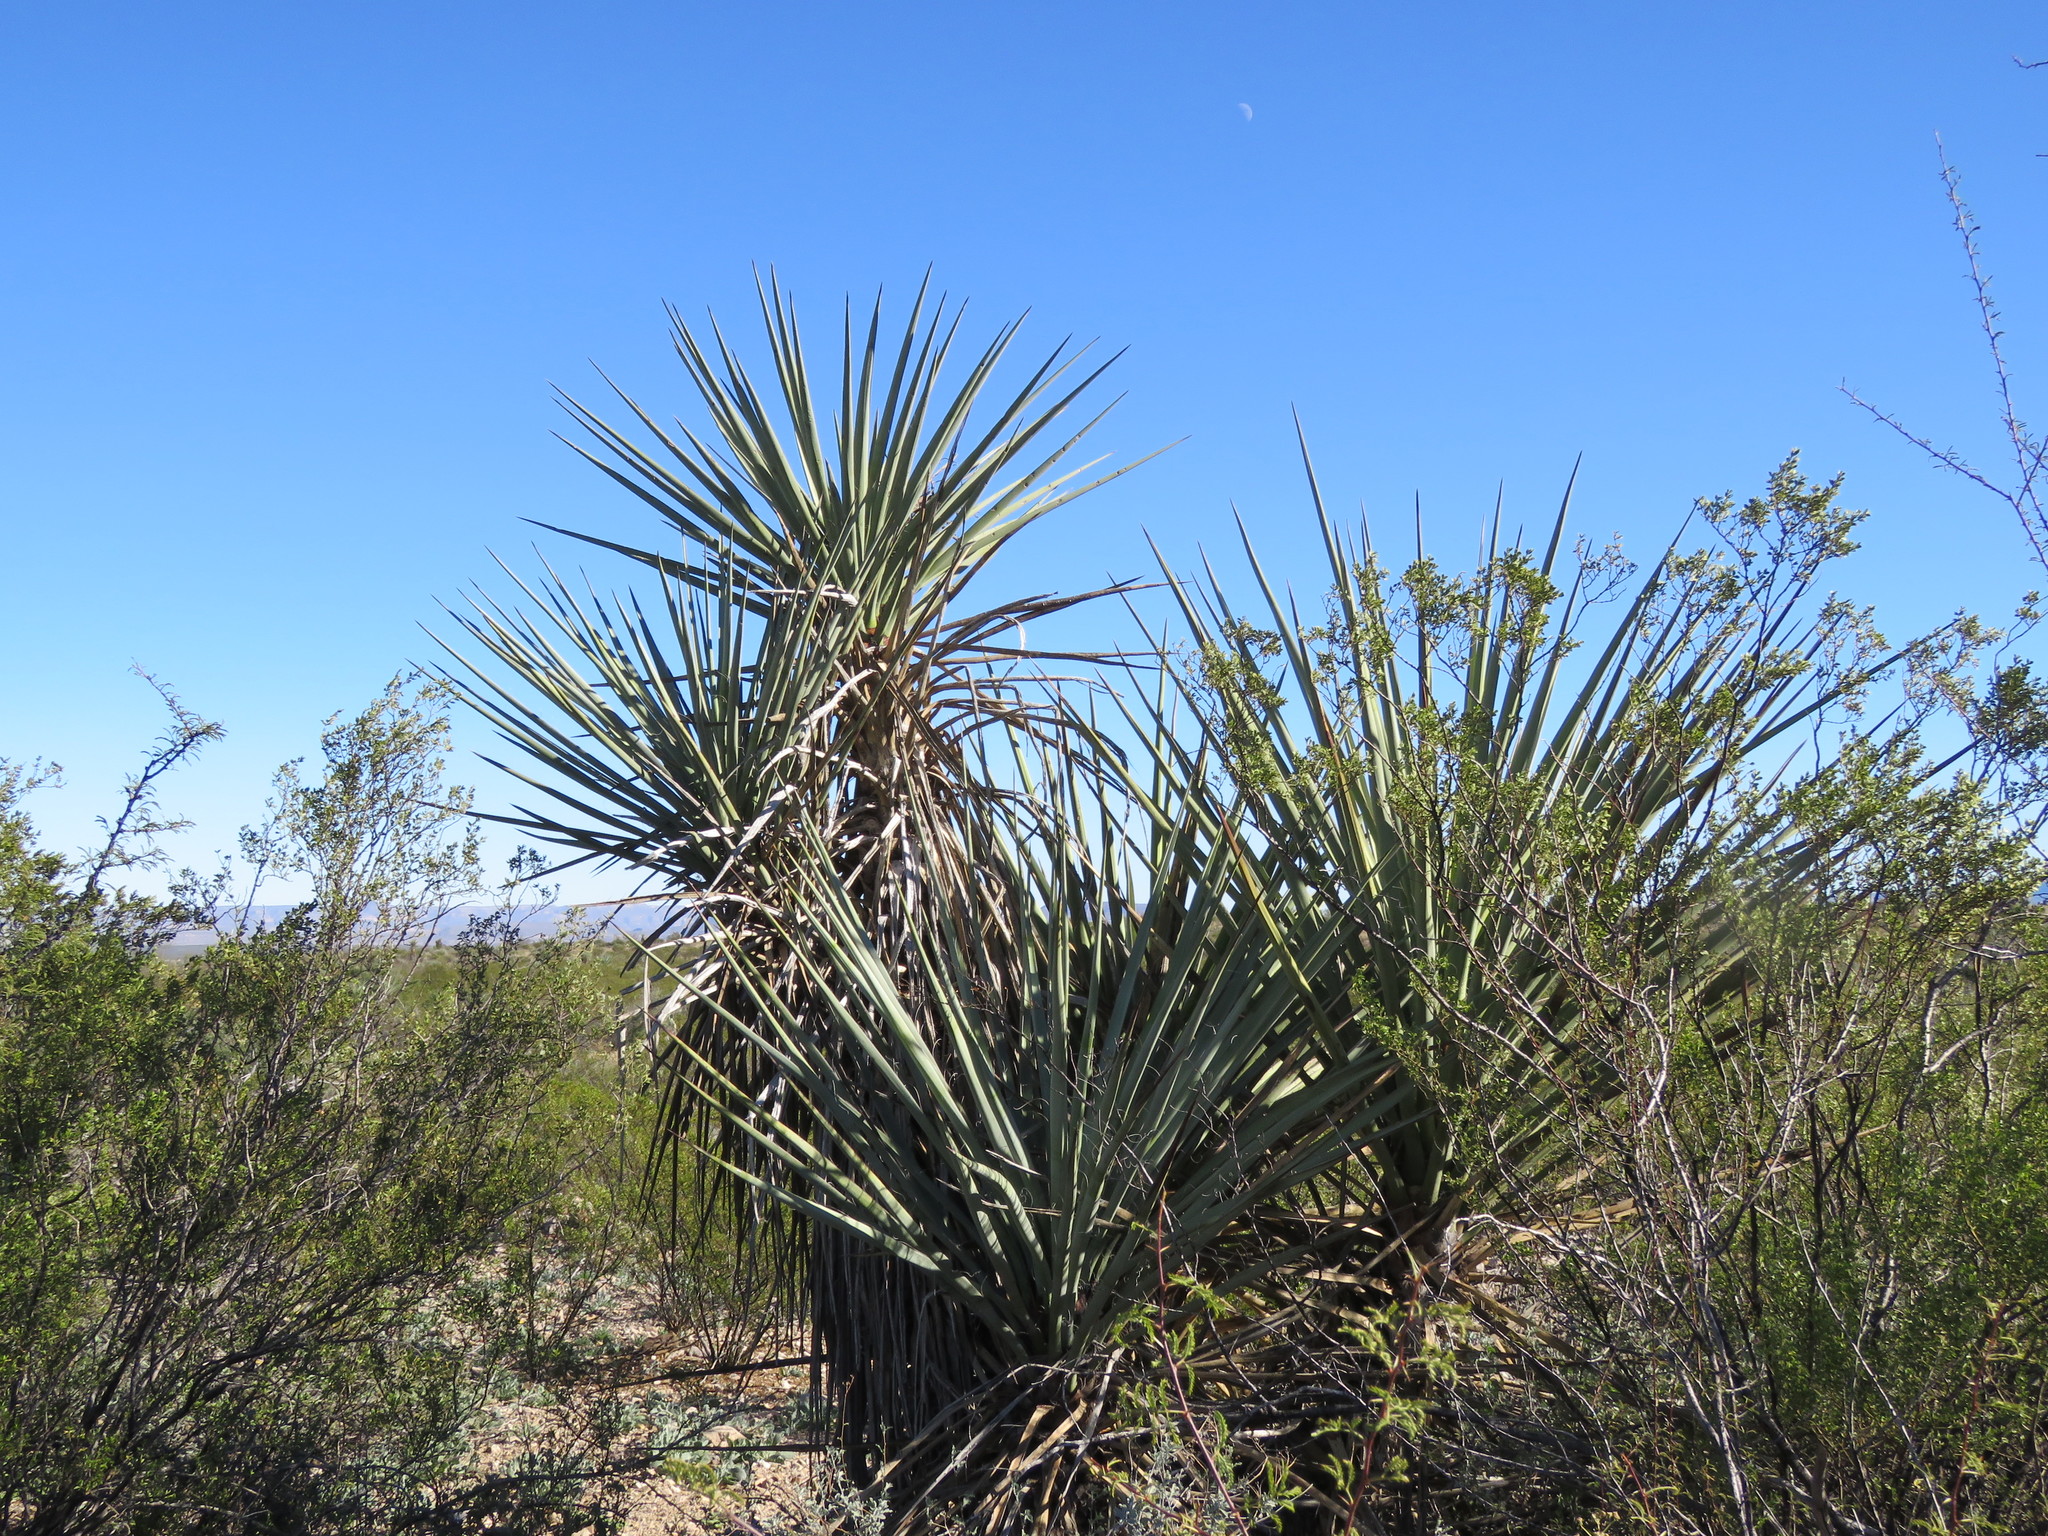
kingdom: Plantae
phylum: Tracheophyta
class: Liliopsida
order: Asparagales
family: Asparagaceae
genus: Yucca
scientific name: Yucca treculiana
